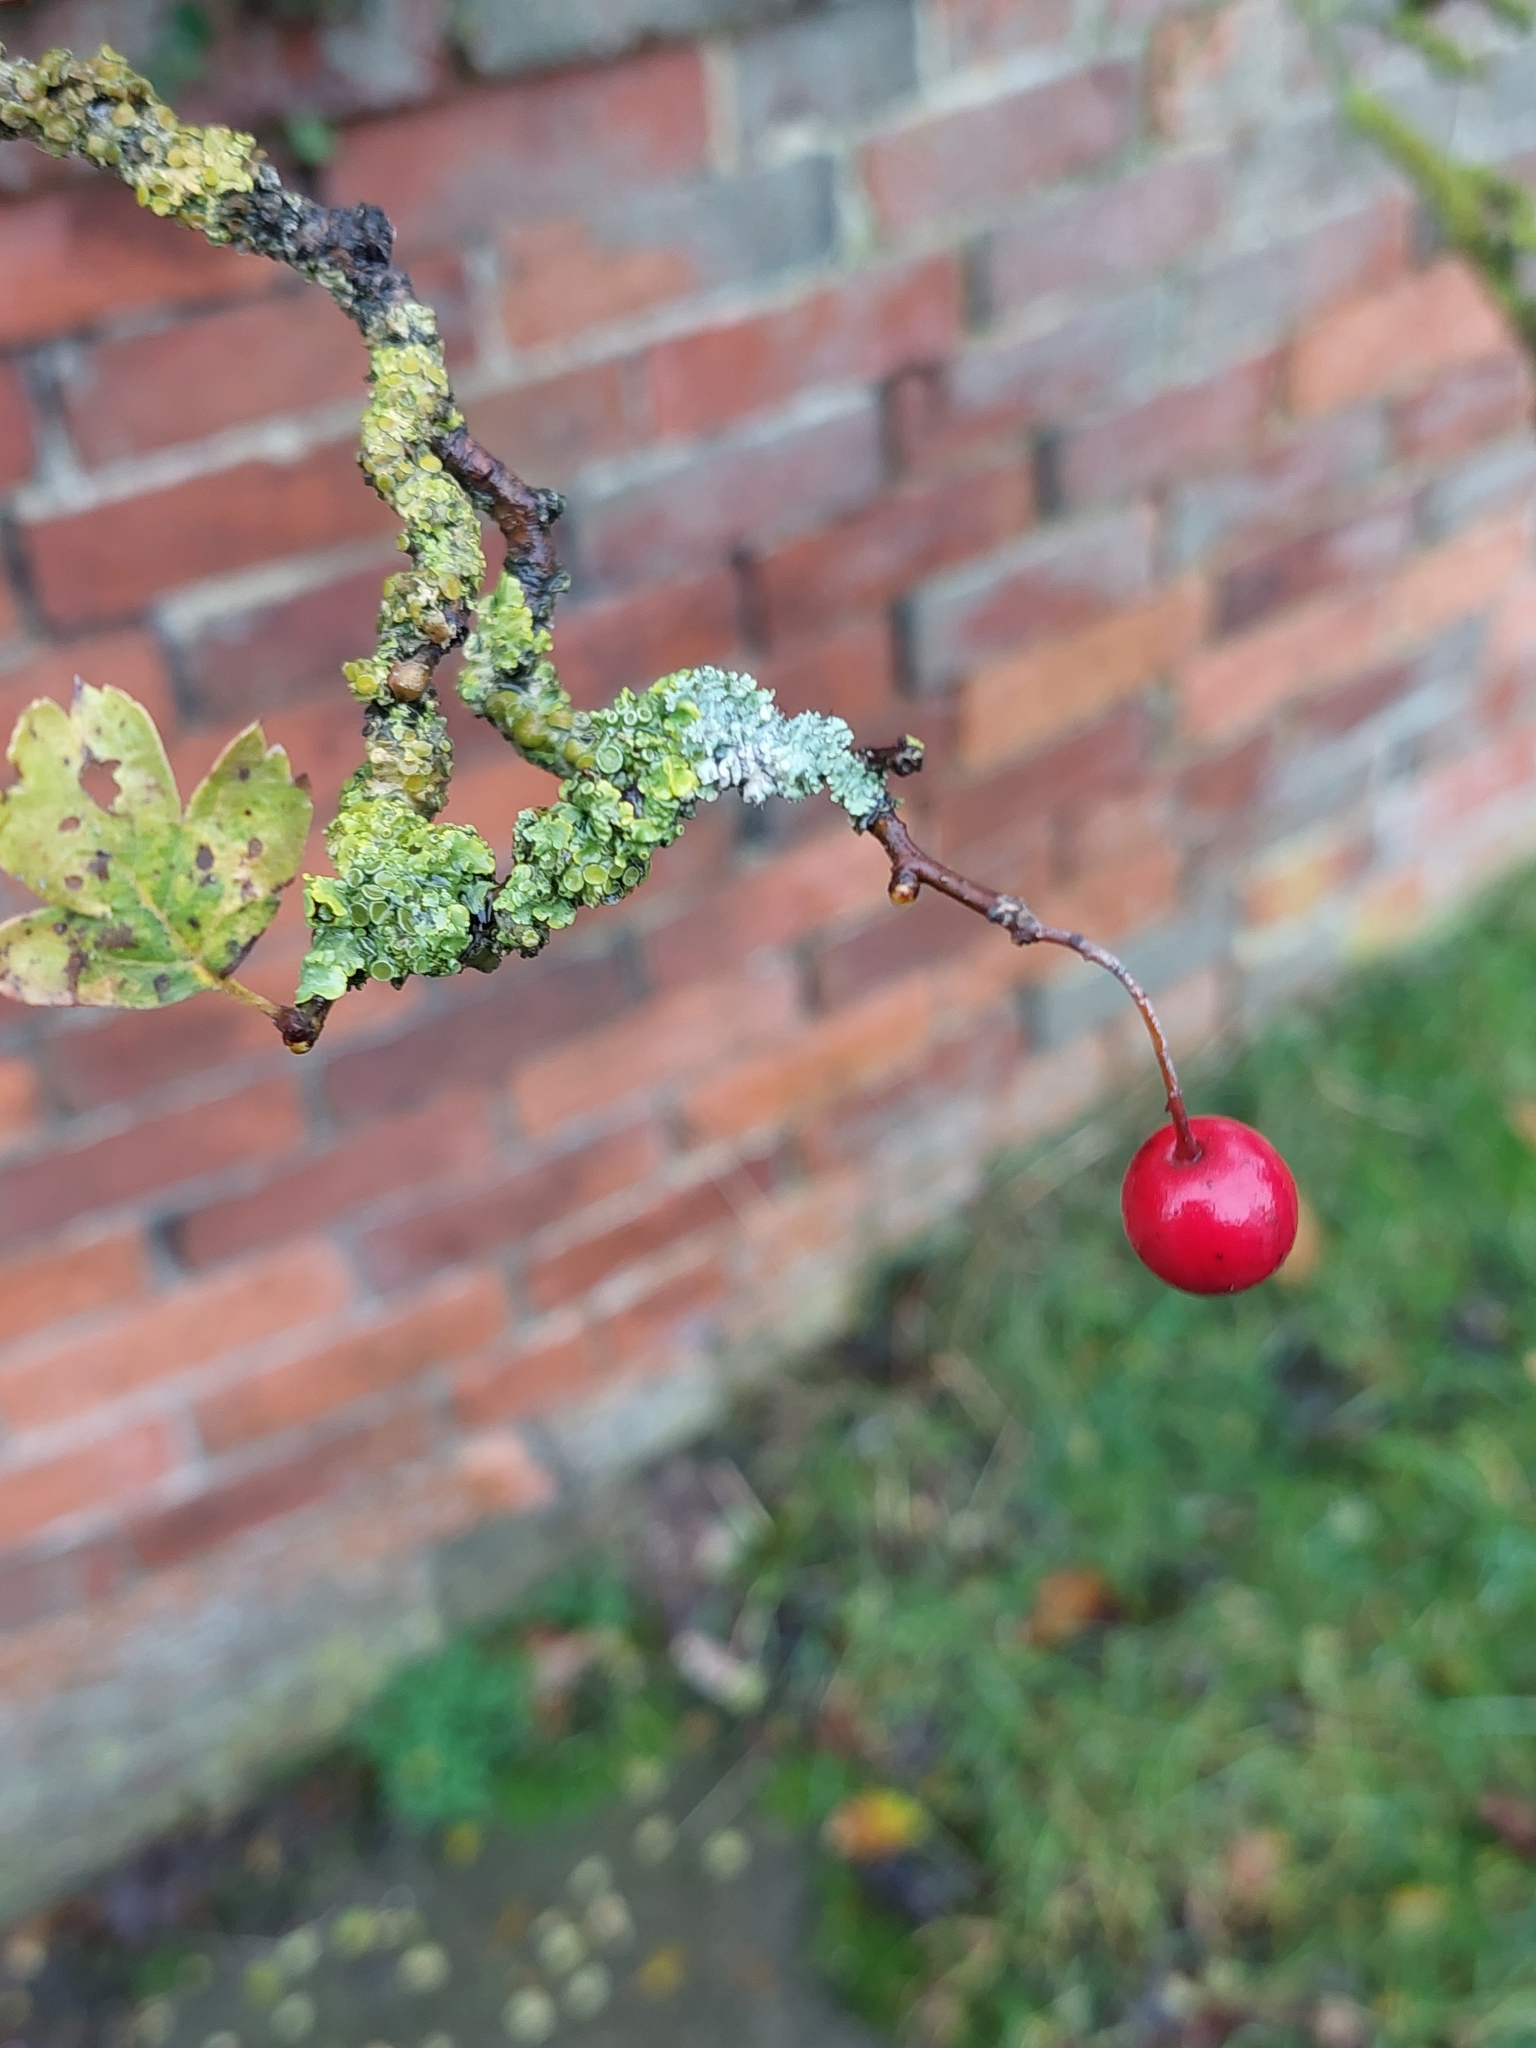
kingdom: Fungi
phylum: Ascomycota
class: Lecanoromycetes
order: Teloschistales
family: Teloschistaceae
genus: Xanthoria
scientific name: Xanthoria parietina
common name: Common orange lichen
